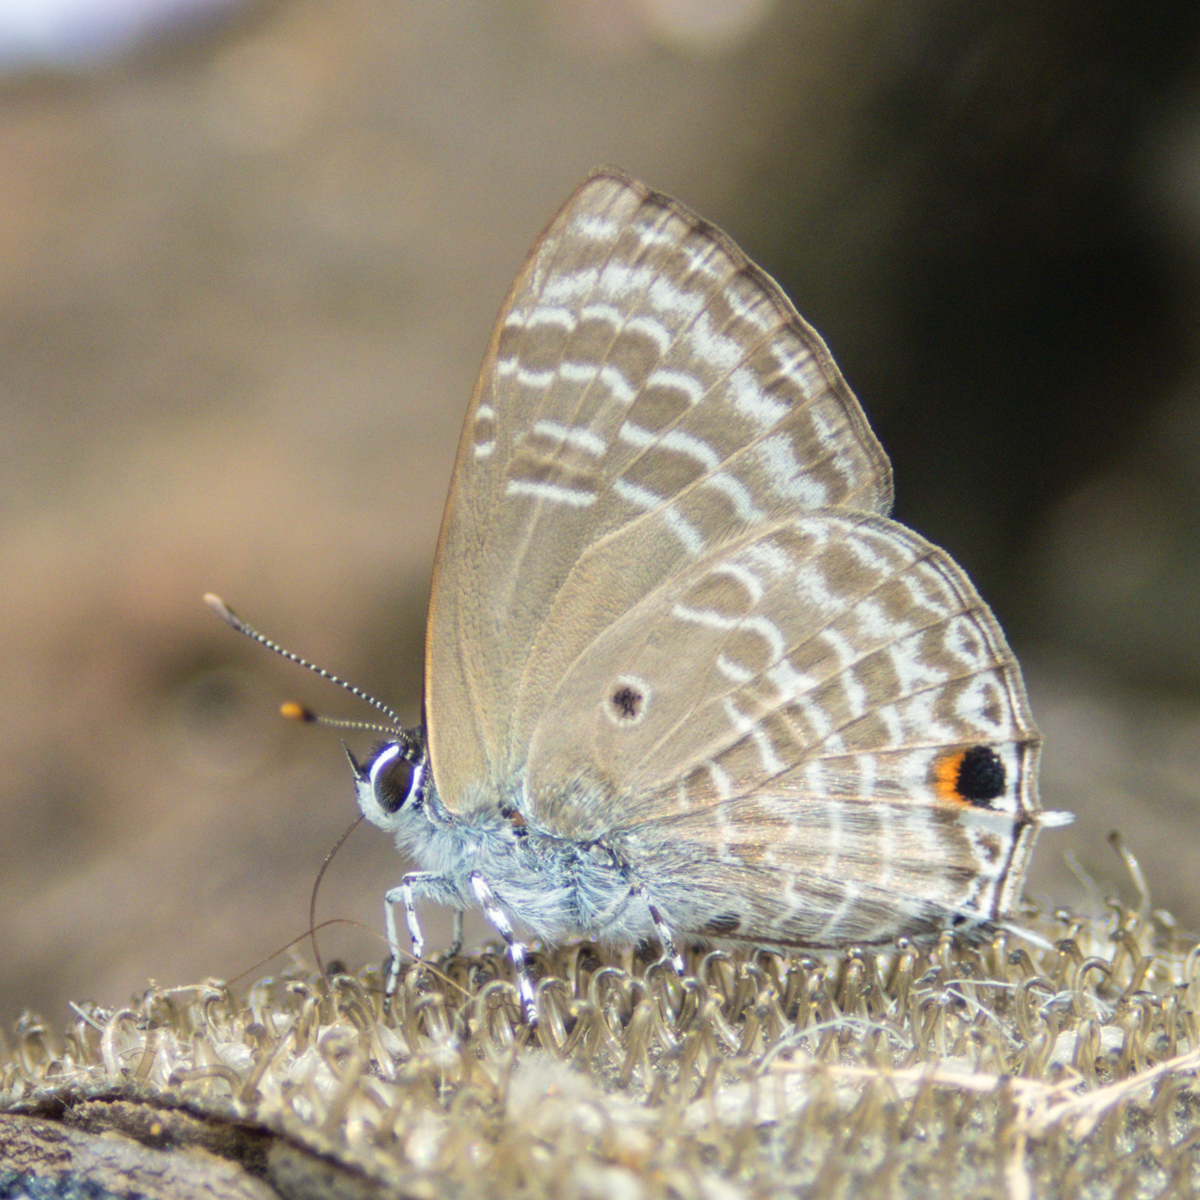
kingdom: Animalia
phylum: Arthropoda
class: Insecta
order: Lepidoptera
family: Lycaenidae
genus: Anthene
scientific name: Anthene lycaenina
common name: Pointed ciliate blue
